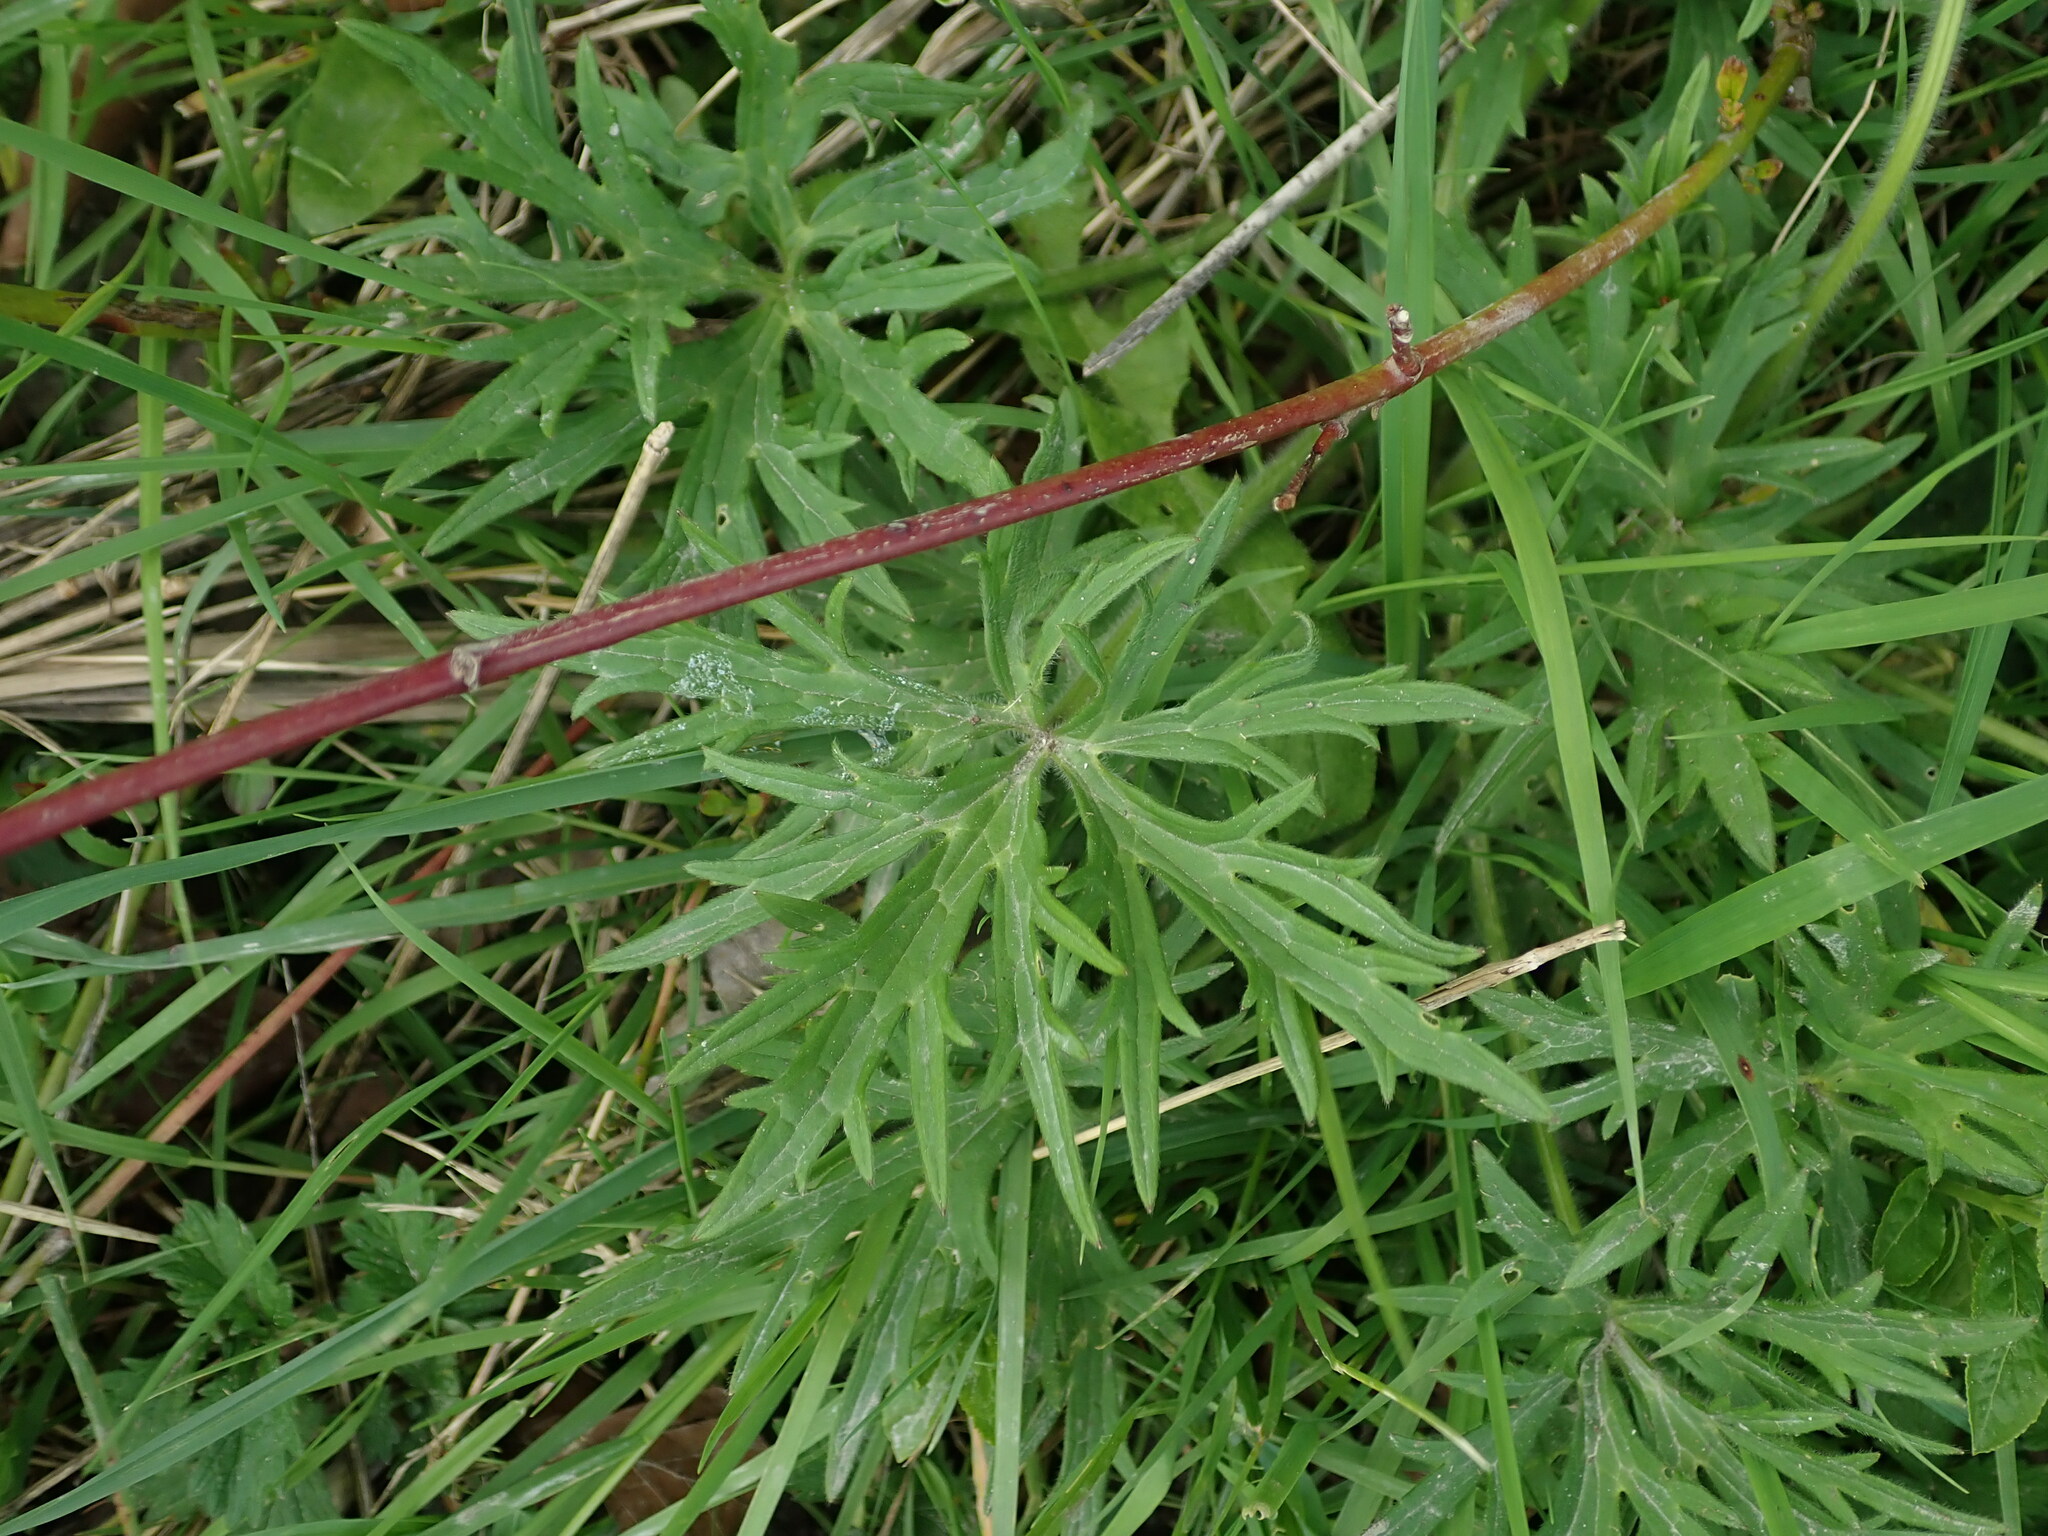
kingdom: Plantae
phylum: Tracheophyta
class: Magnoliopsida
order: Ranunculales
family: Ranunculaceae
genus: Ranunculus
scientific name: Ranunculus acris
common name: Meadow buttercup
